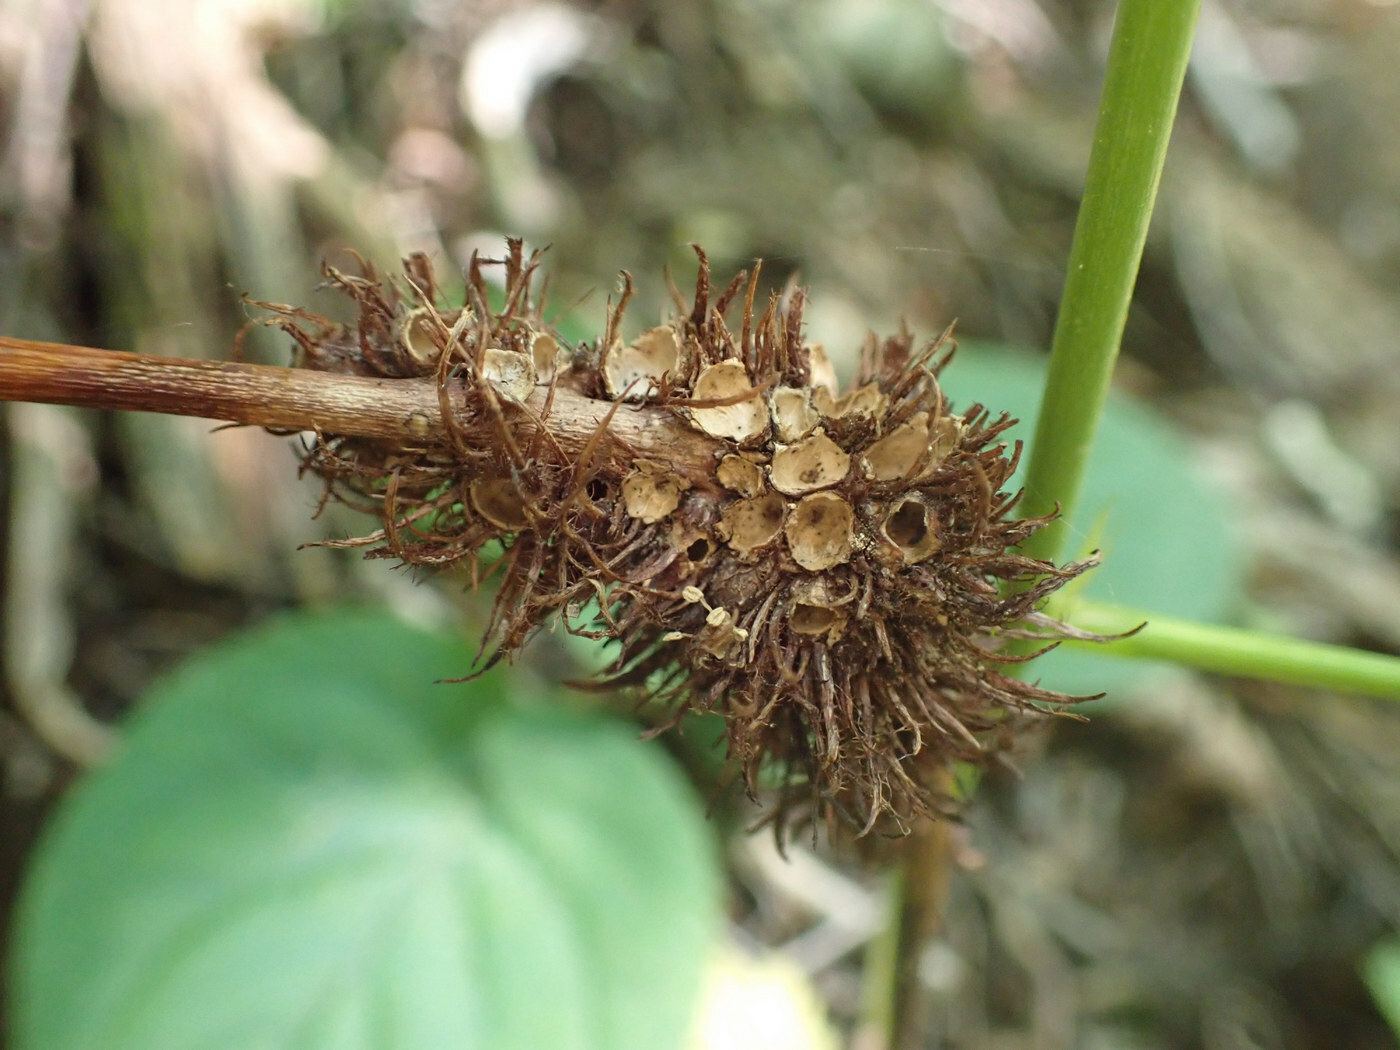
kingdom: Animalia
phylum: Arthropoda
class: Insecta
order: Hymenoptera
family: Cynipidae
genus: Diastrophus
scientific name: Diastrophus
